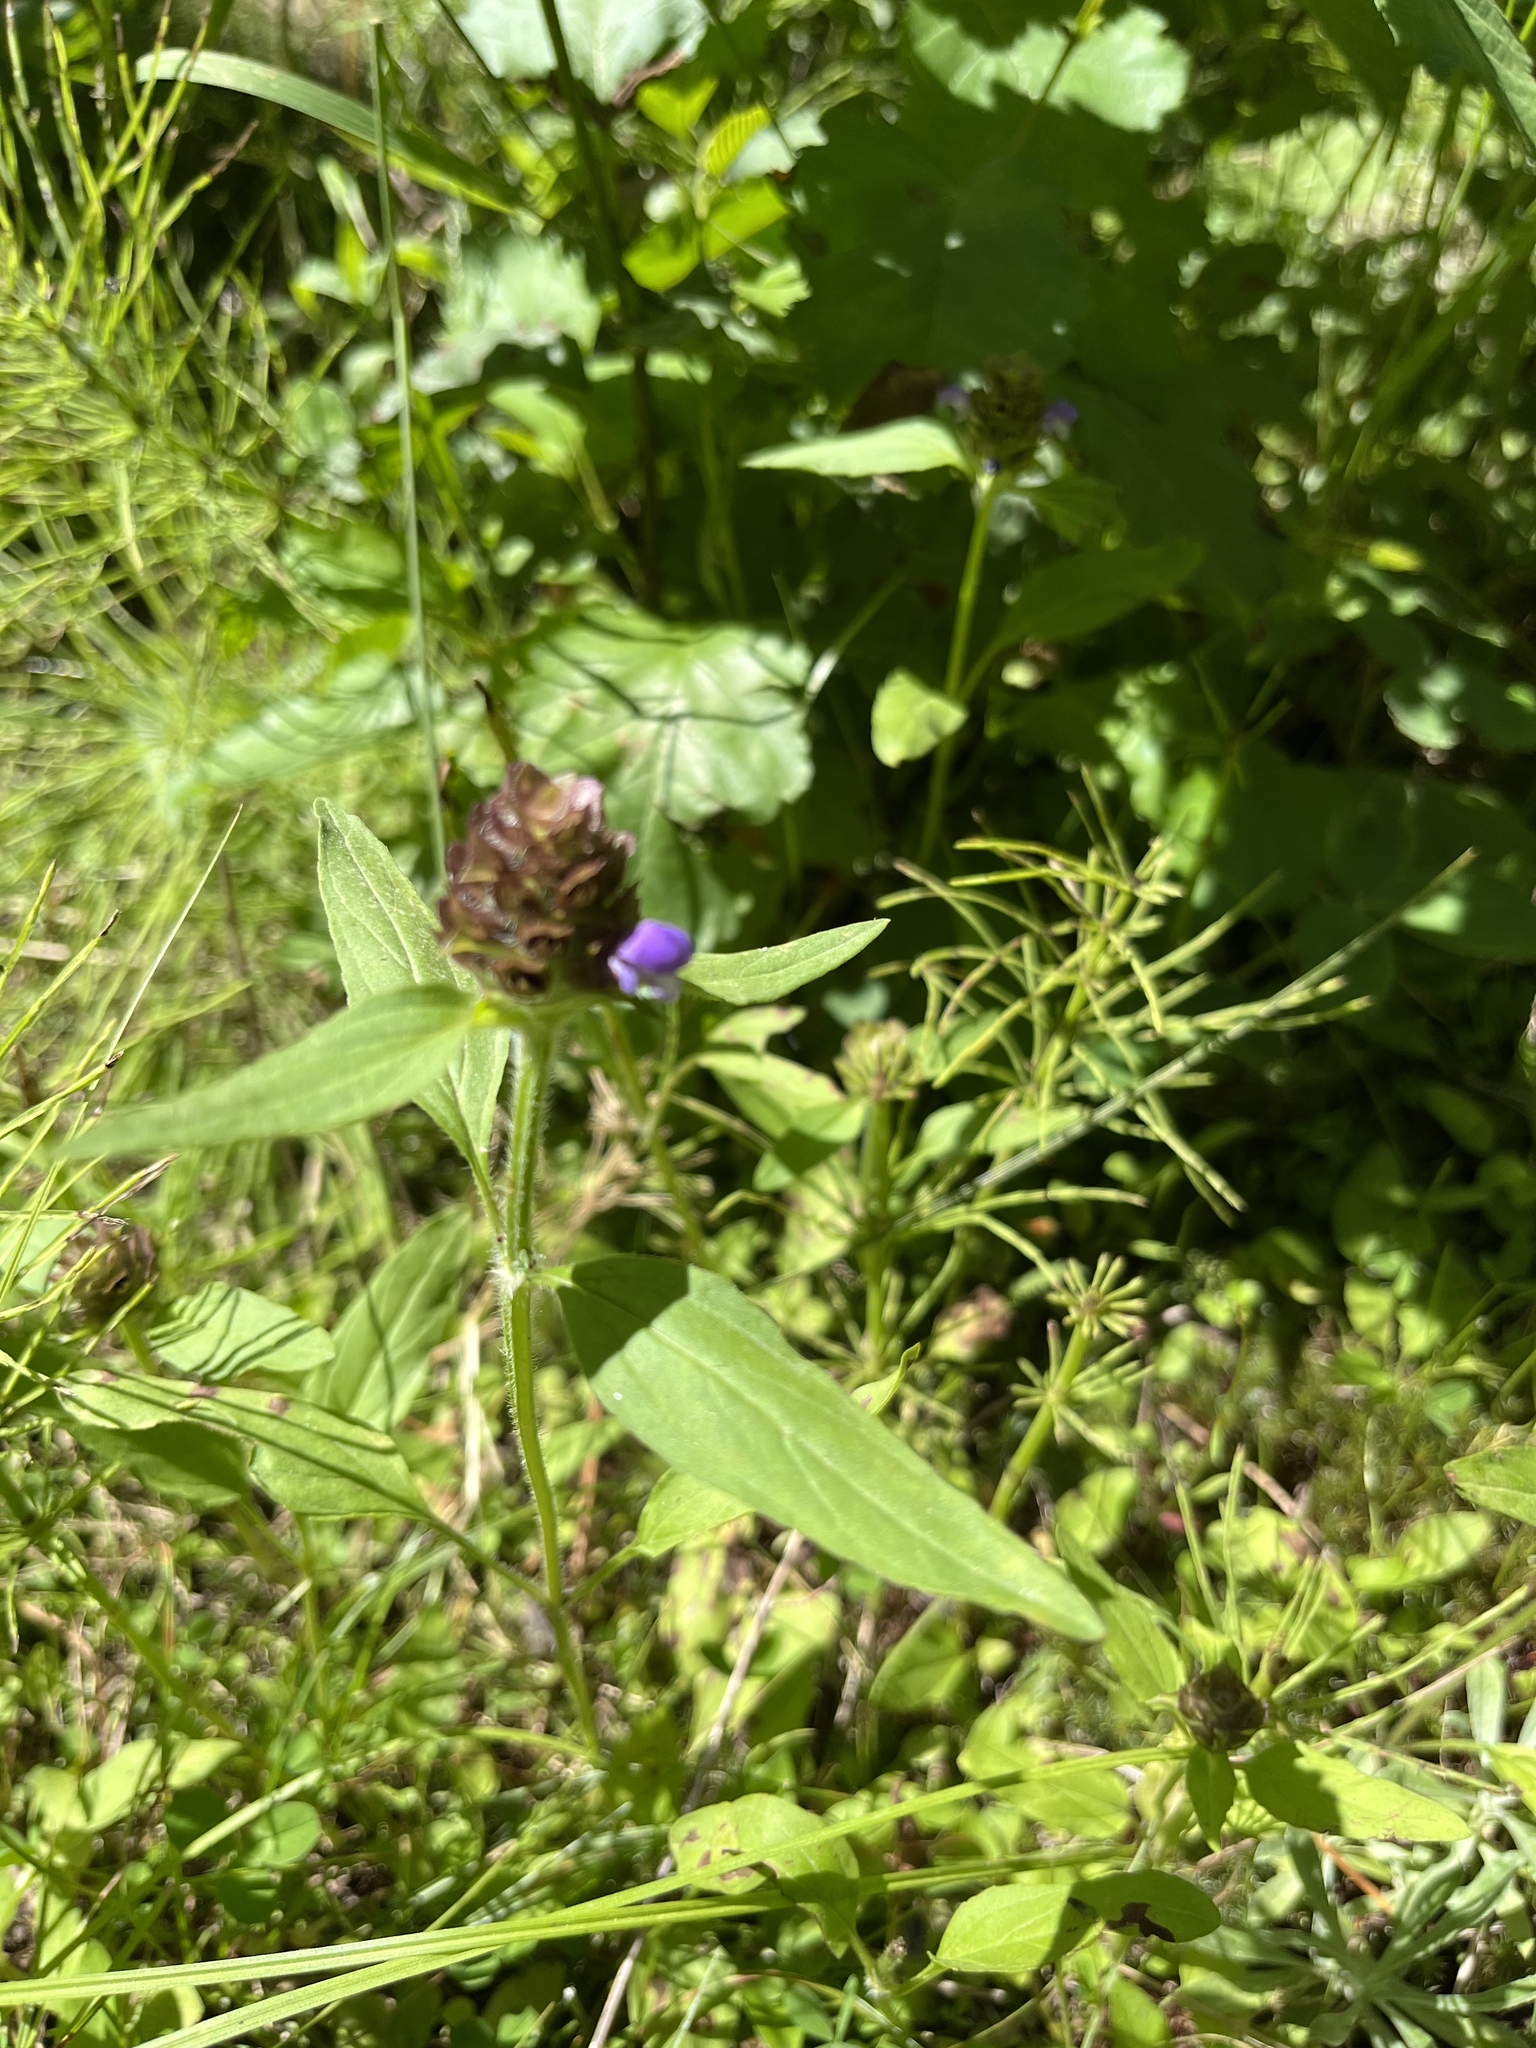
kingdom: Plantae
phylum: Tracheophyta
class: Magnoliopsida
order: Lamiales
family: Lamiaceae
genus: Prunella
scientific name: Prunella vulgaris
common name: Heal-all
